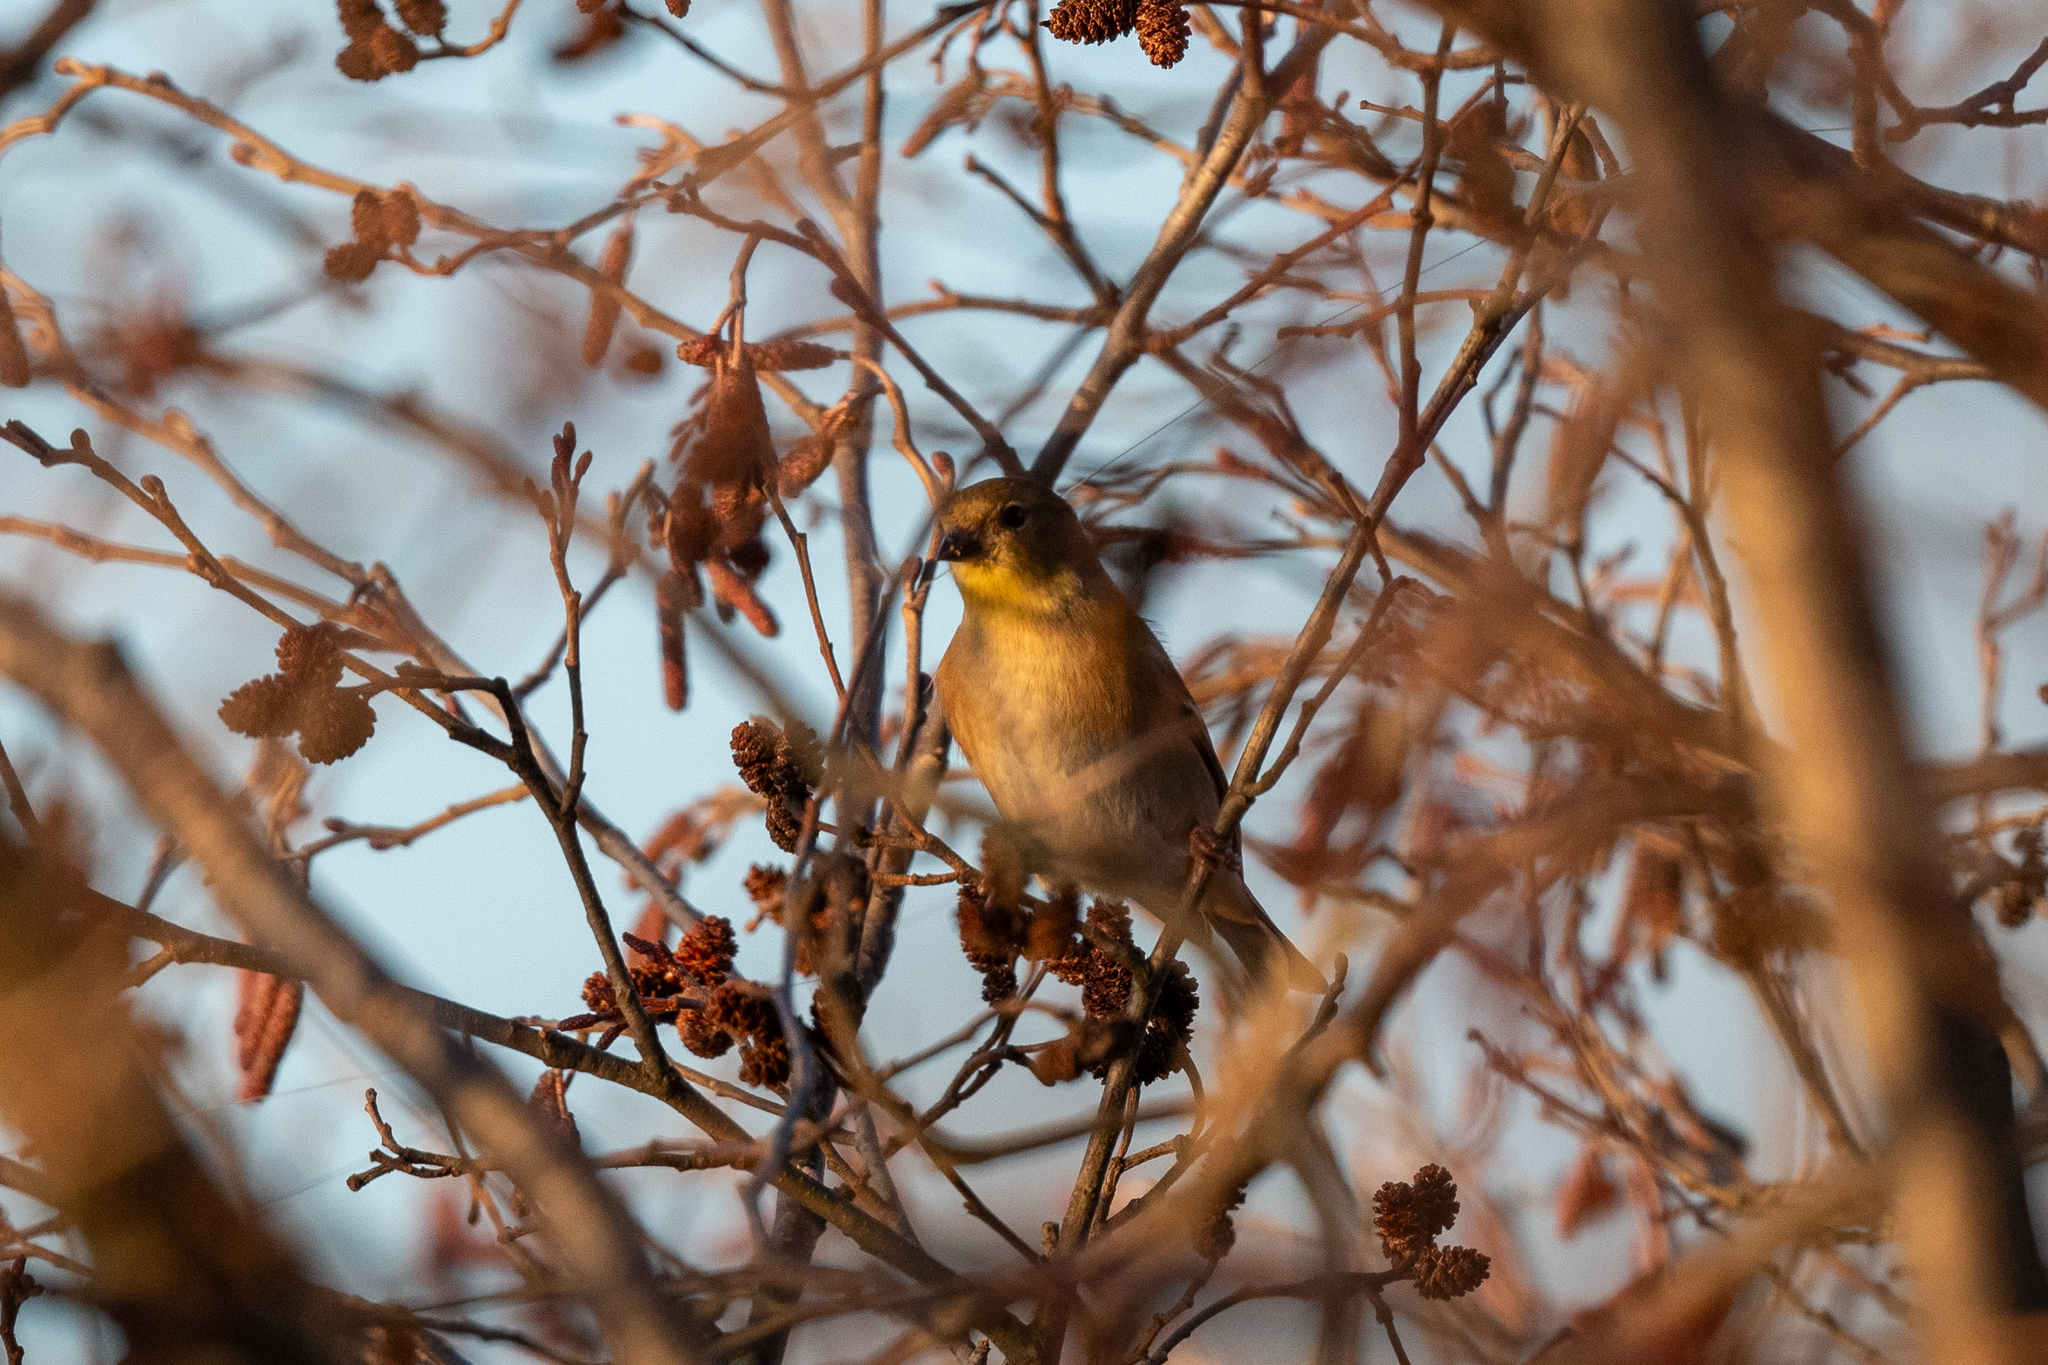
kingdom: Animalia
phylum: Chordata
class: Aves
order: Passeriformes
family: Fringillidae
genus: Spinus
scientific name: Spinus tristis
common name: American goldfinch
